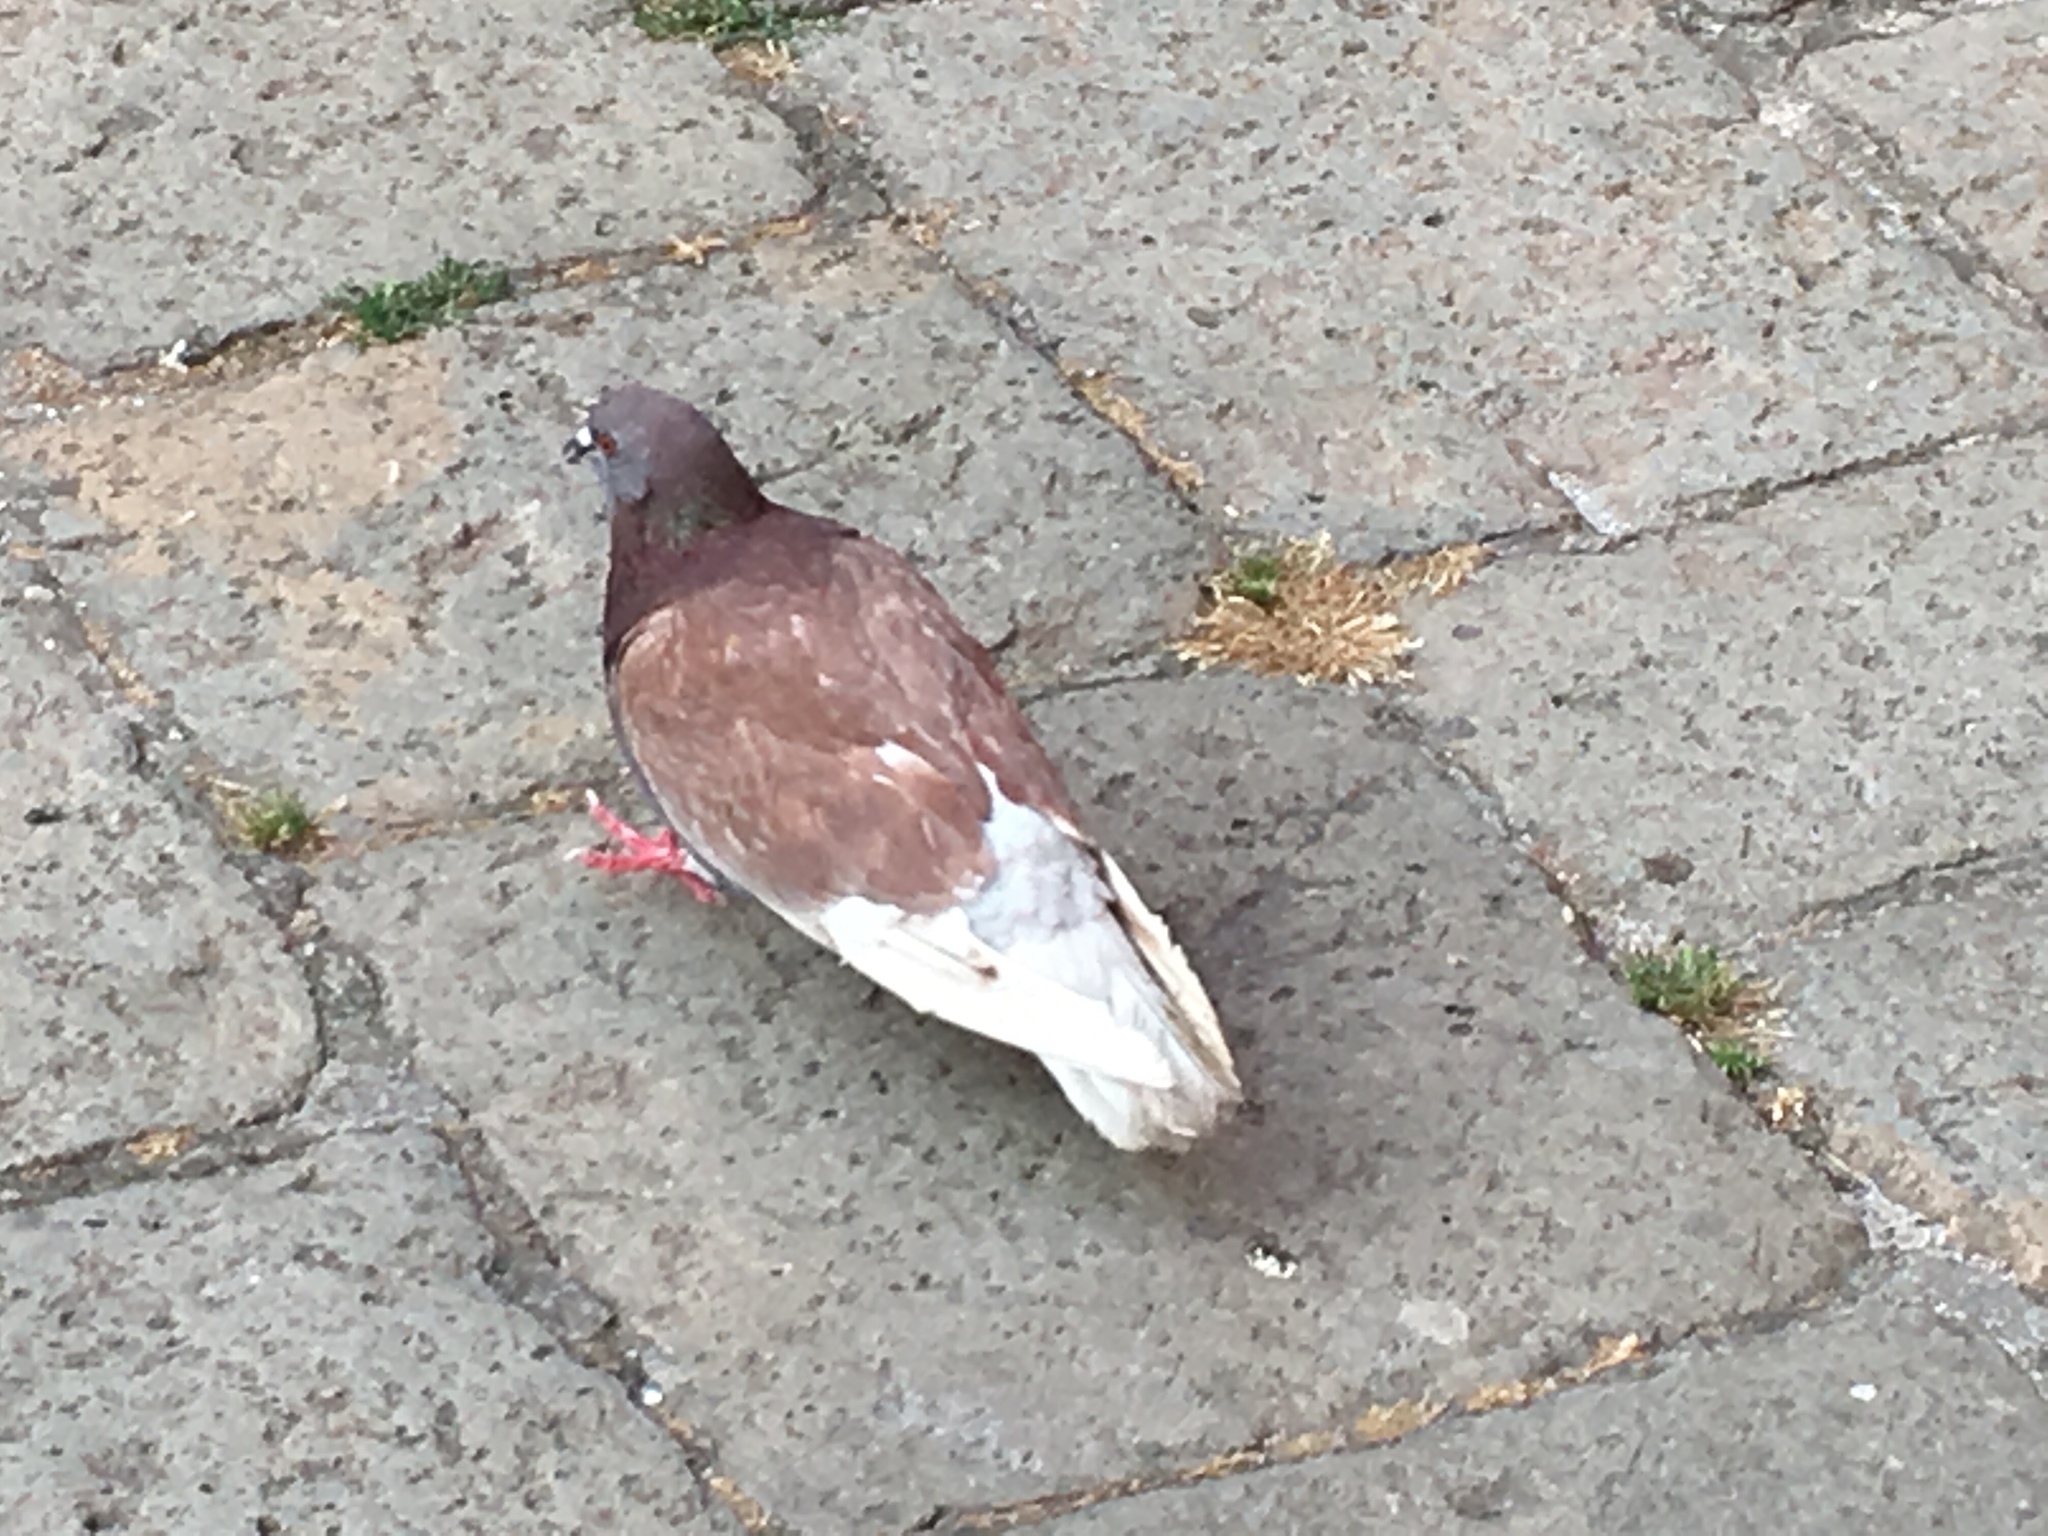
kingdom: Animalia
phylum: Chordata
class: Aves
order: Columbiformes
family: Columbidae
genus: Columba
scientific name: Columba livia
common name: Rock pigeon
